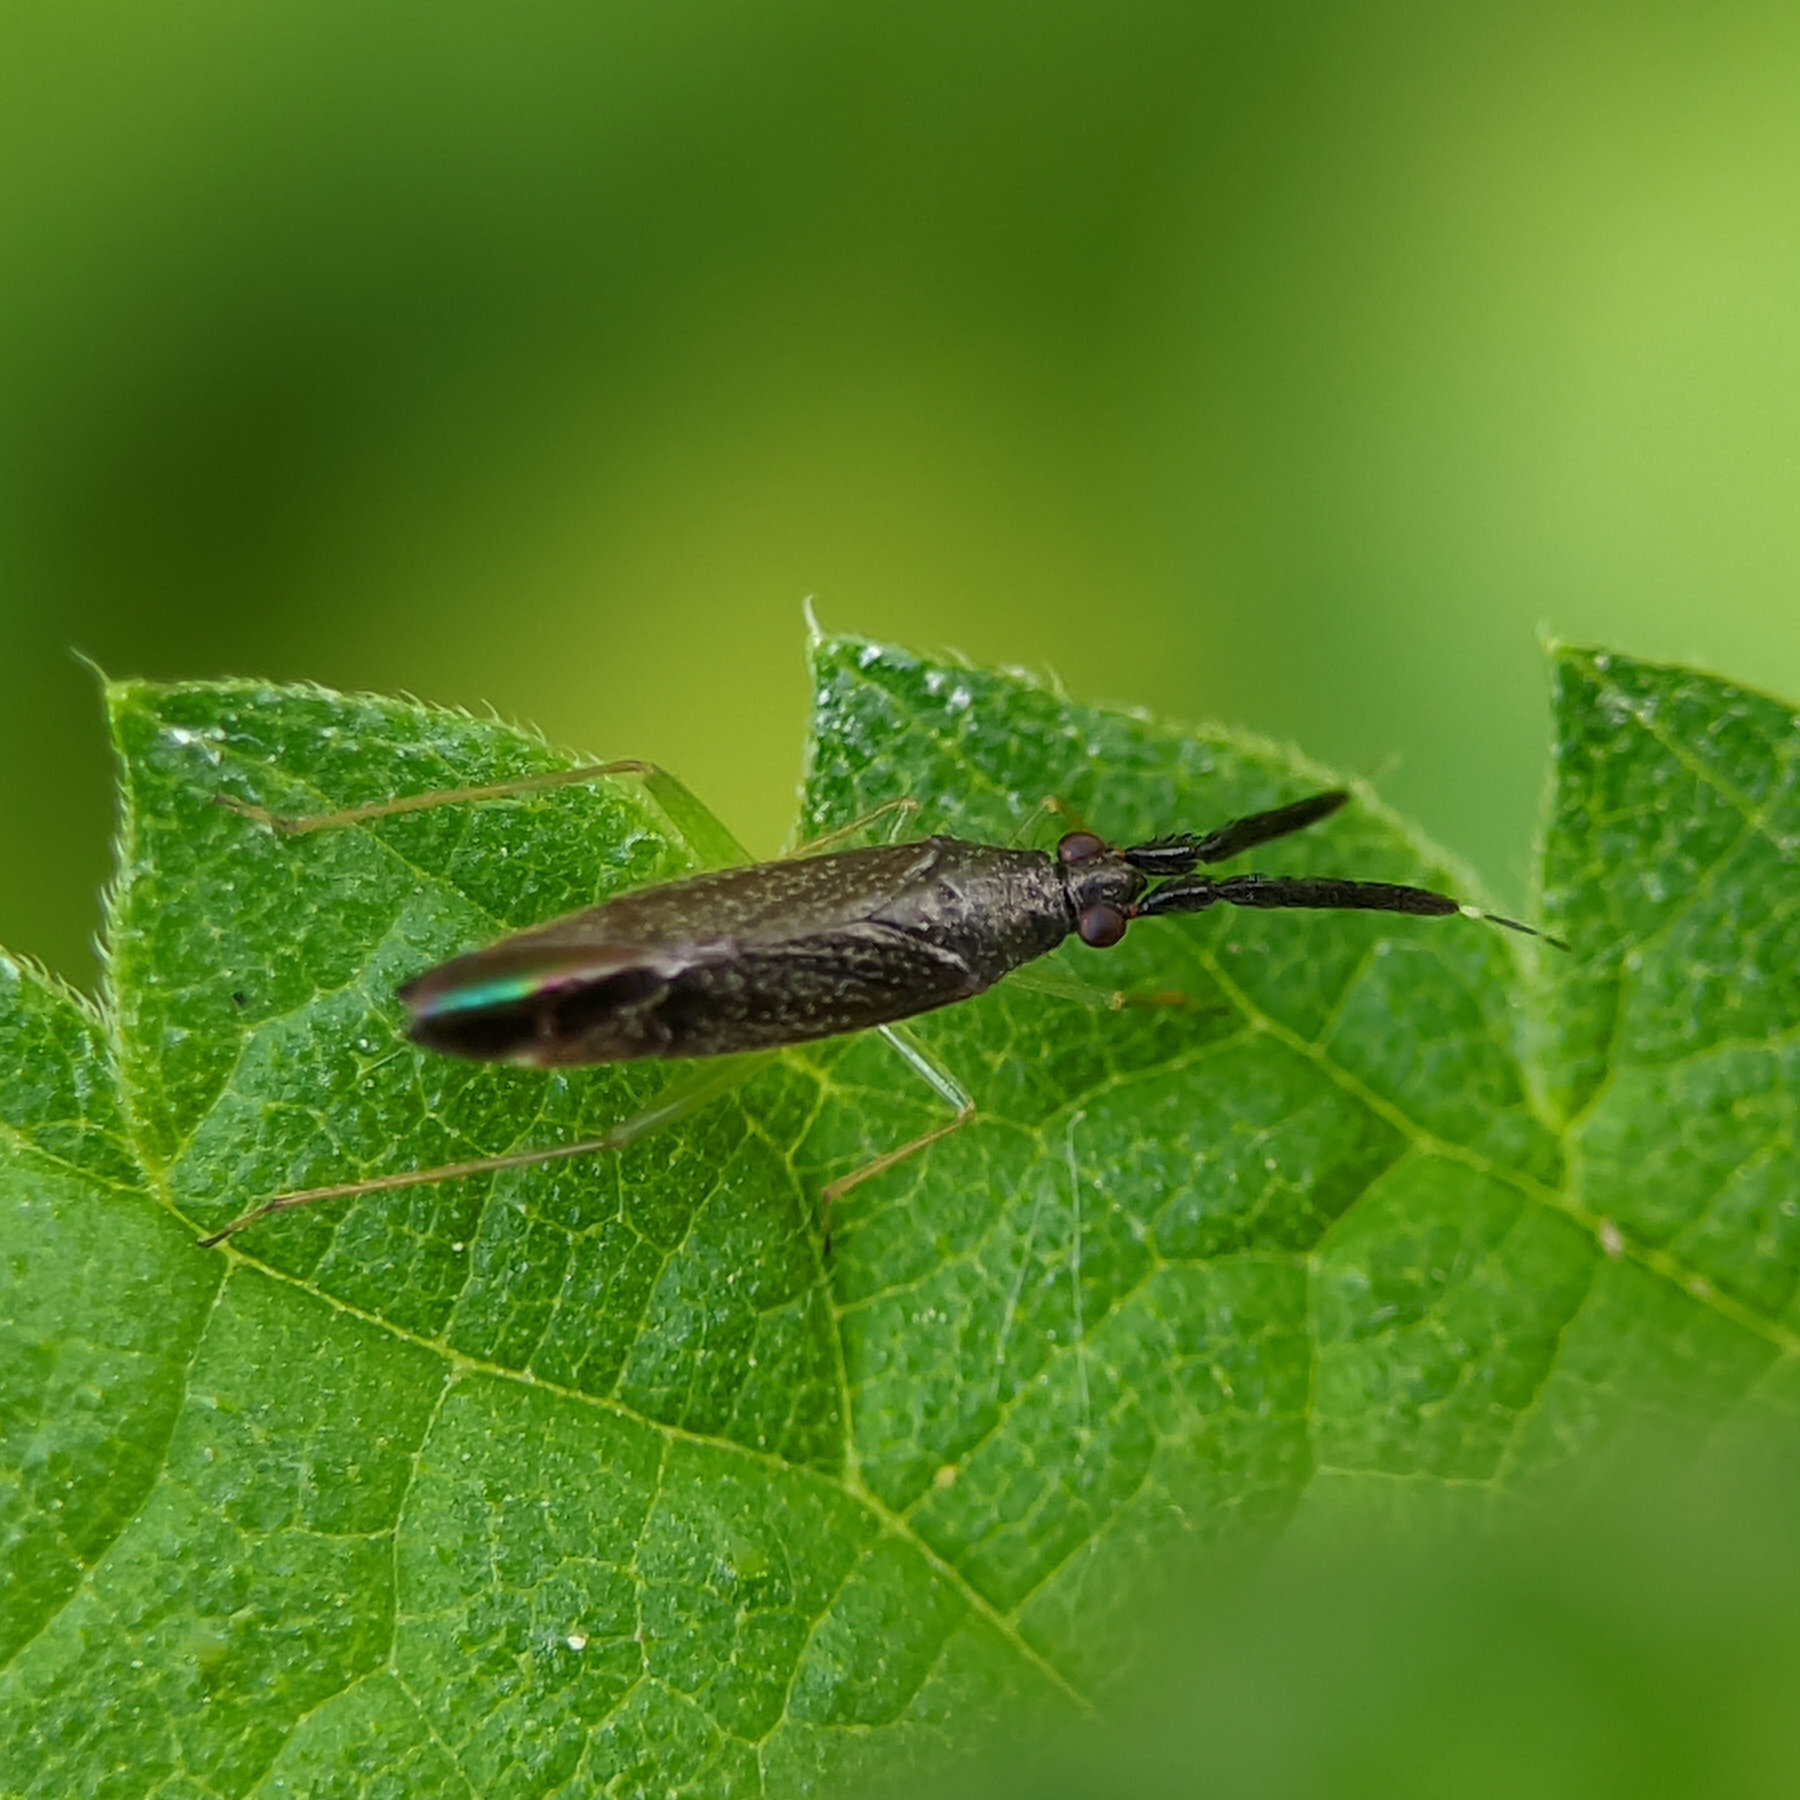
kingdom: Animalia
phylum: Arthropoda
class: Insecta
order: Hemiptera
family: Miridae
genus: Heterotoma
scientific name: Heterotoma planicornis
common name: Plant bug
